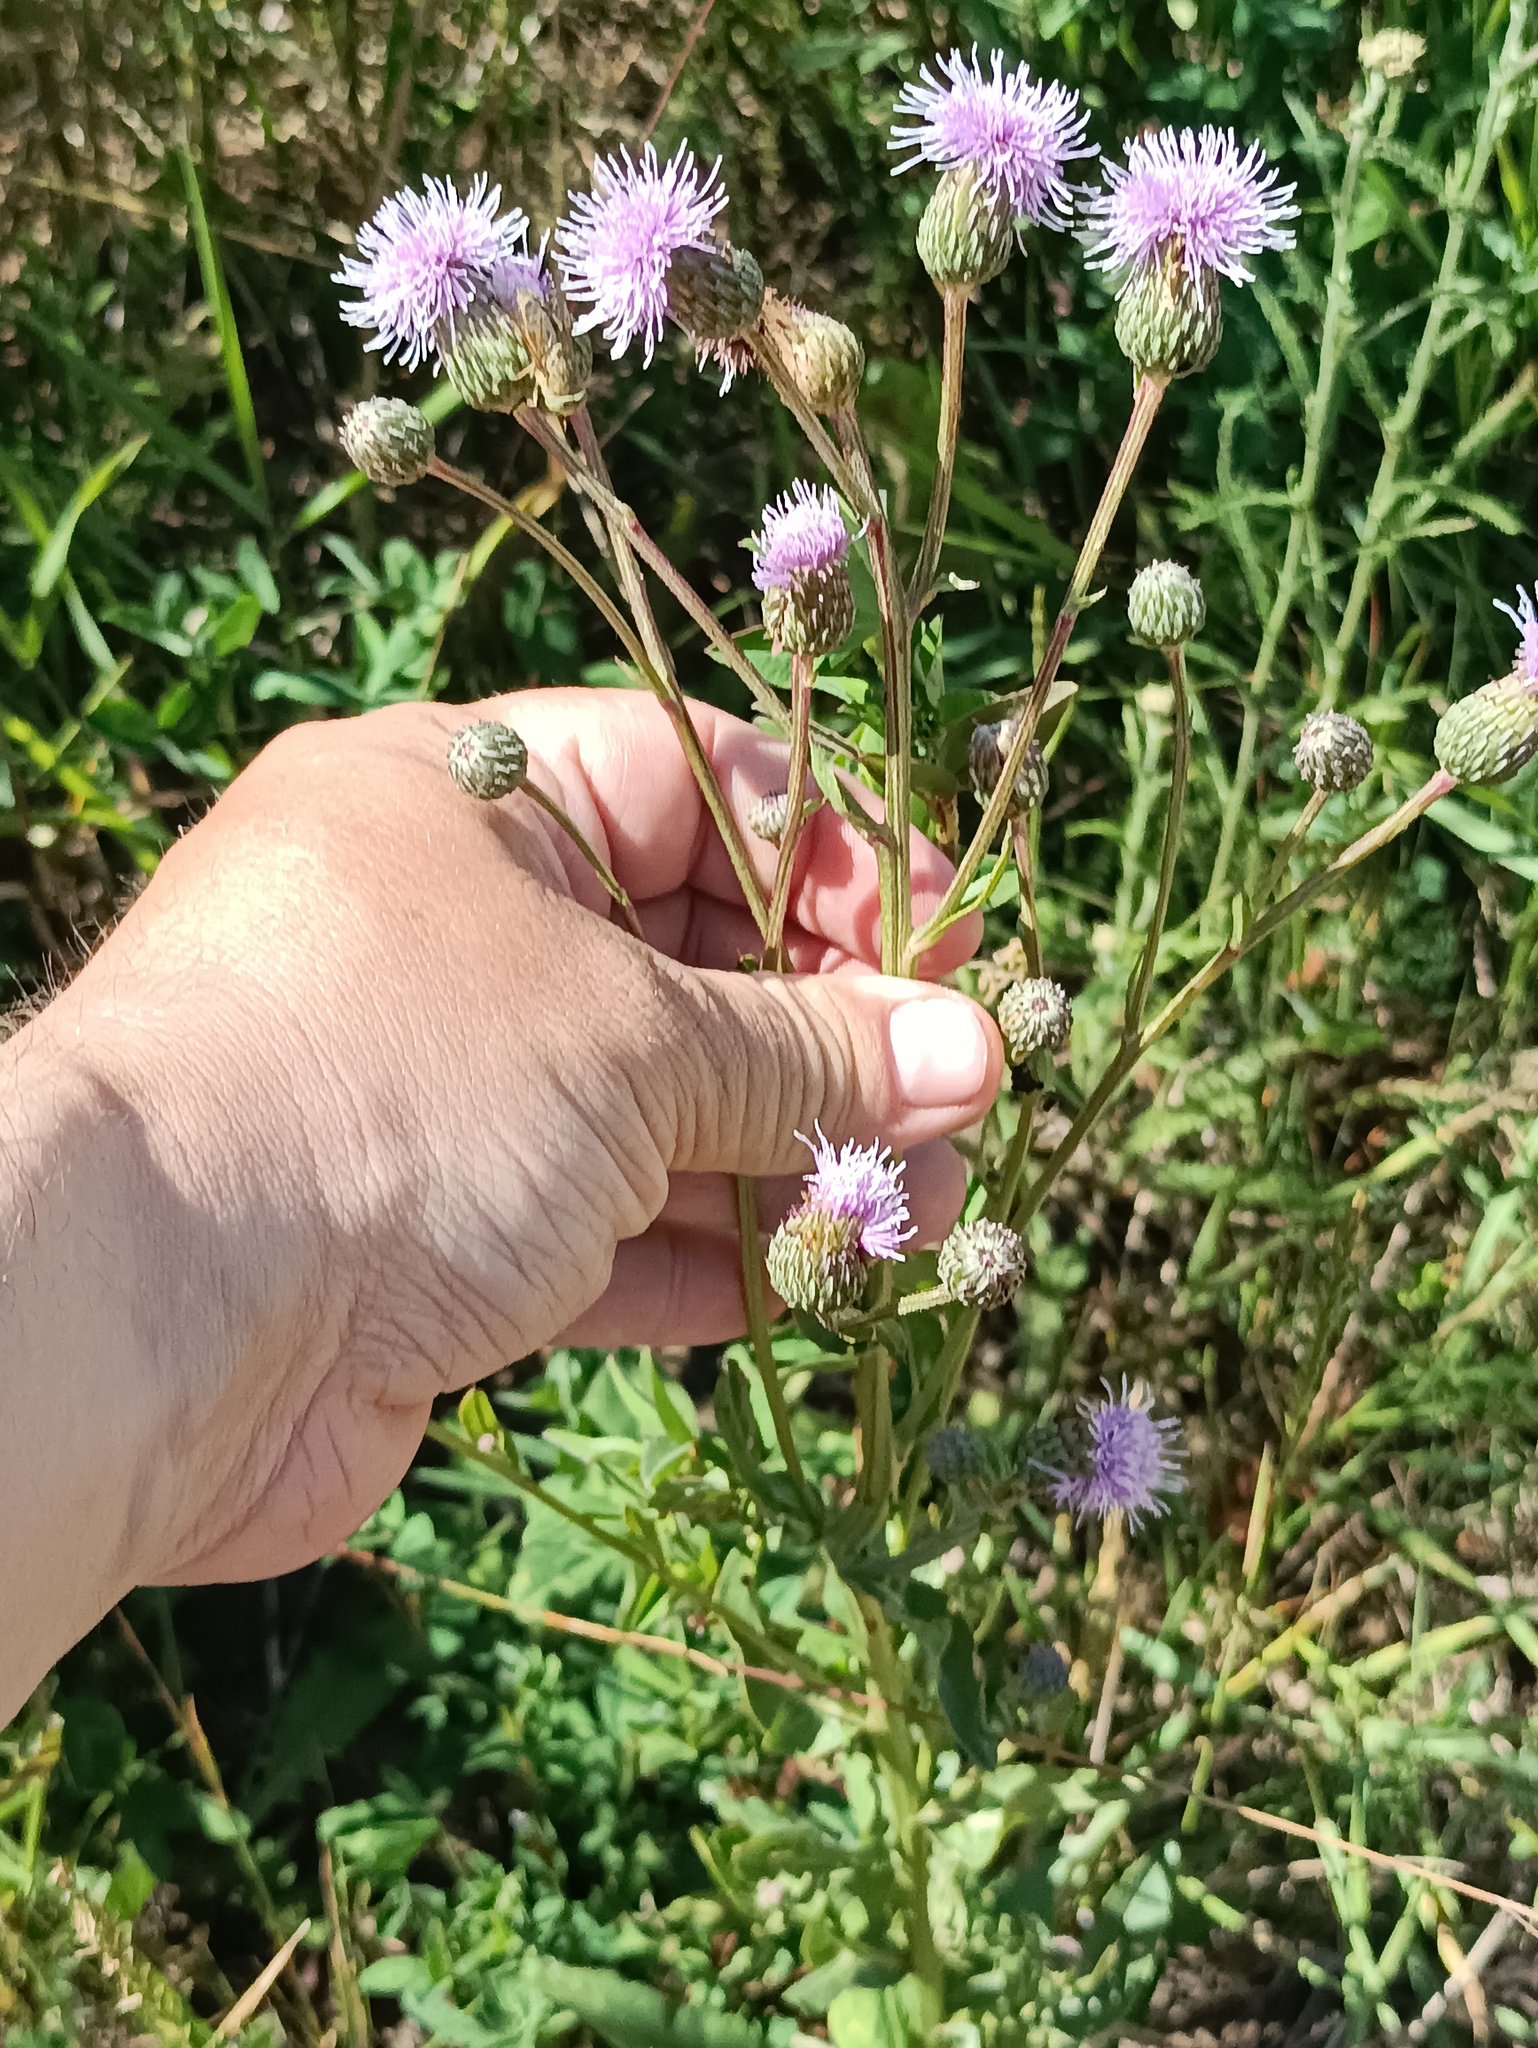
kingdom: Plantae
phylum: Tracheophyta
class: Magnoliopsida
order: Asterales
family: Asteraceae
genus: Cirsium
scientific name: Cirsium arvense
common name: Creeping thistle
